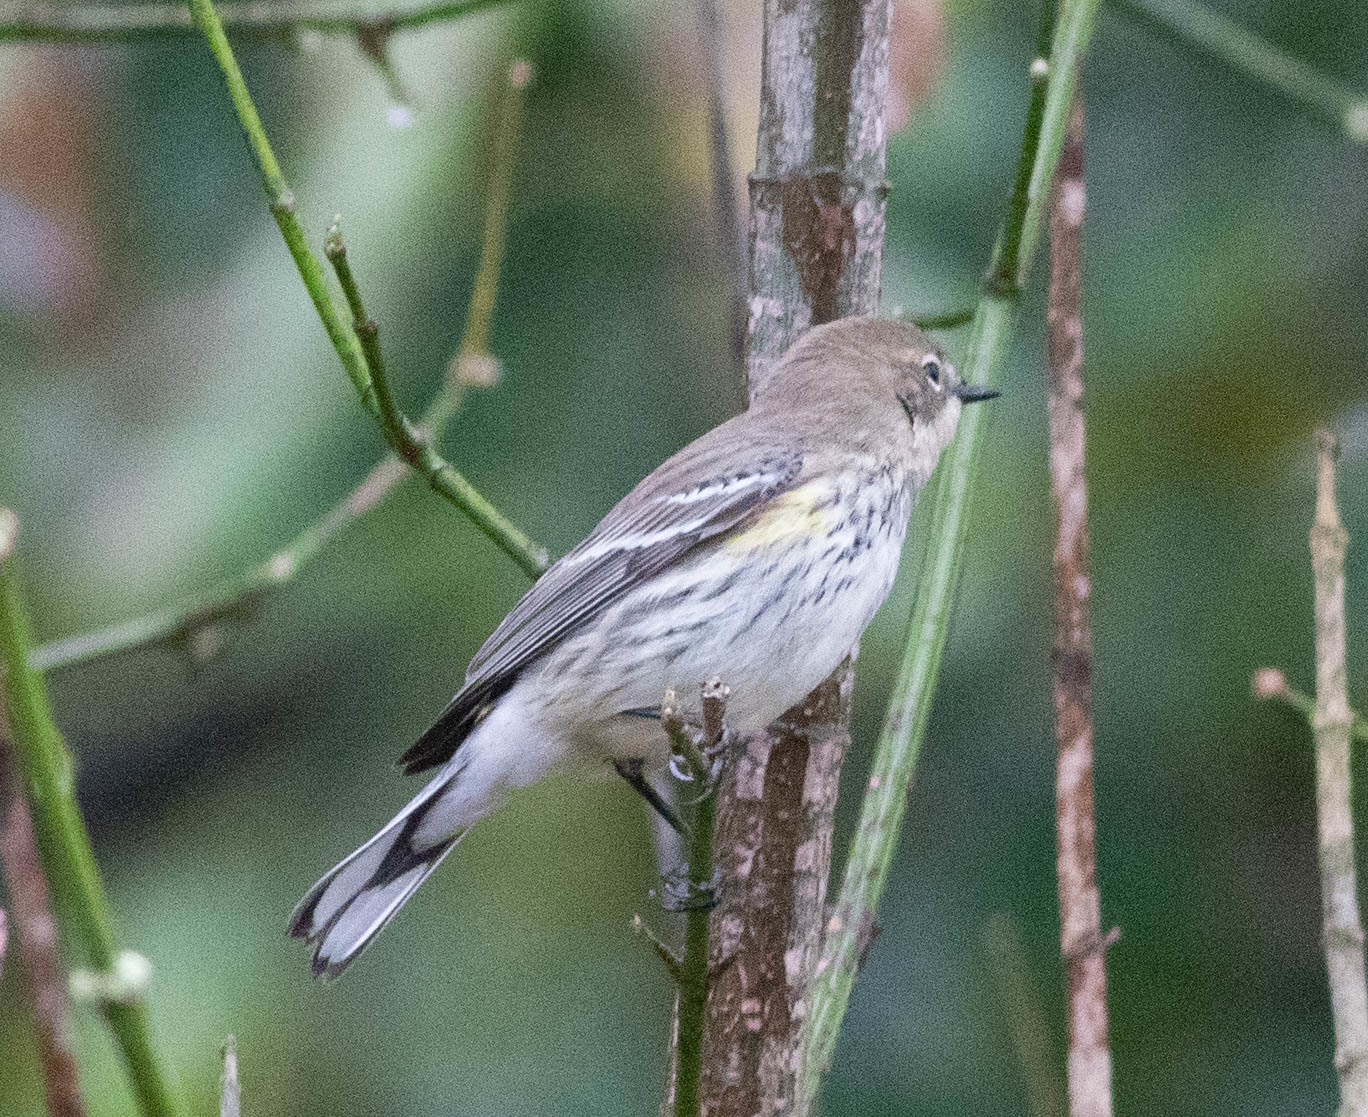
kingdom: Animalia
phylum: Chordata
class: Aves
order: Passeriformes
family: Parulidae
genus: Setophaga
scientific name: Setophaga coronata
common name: Myrtle warbler
